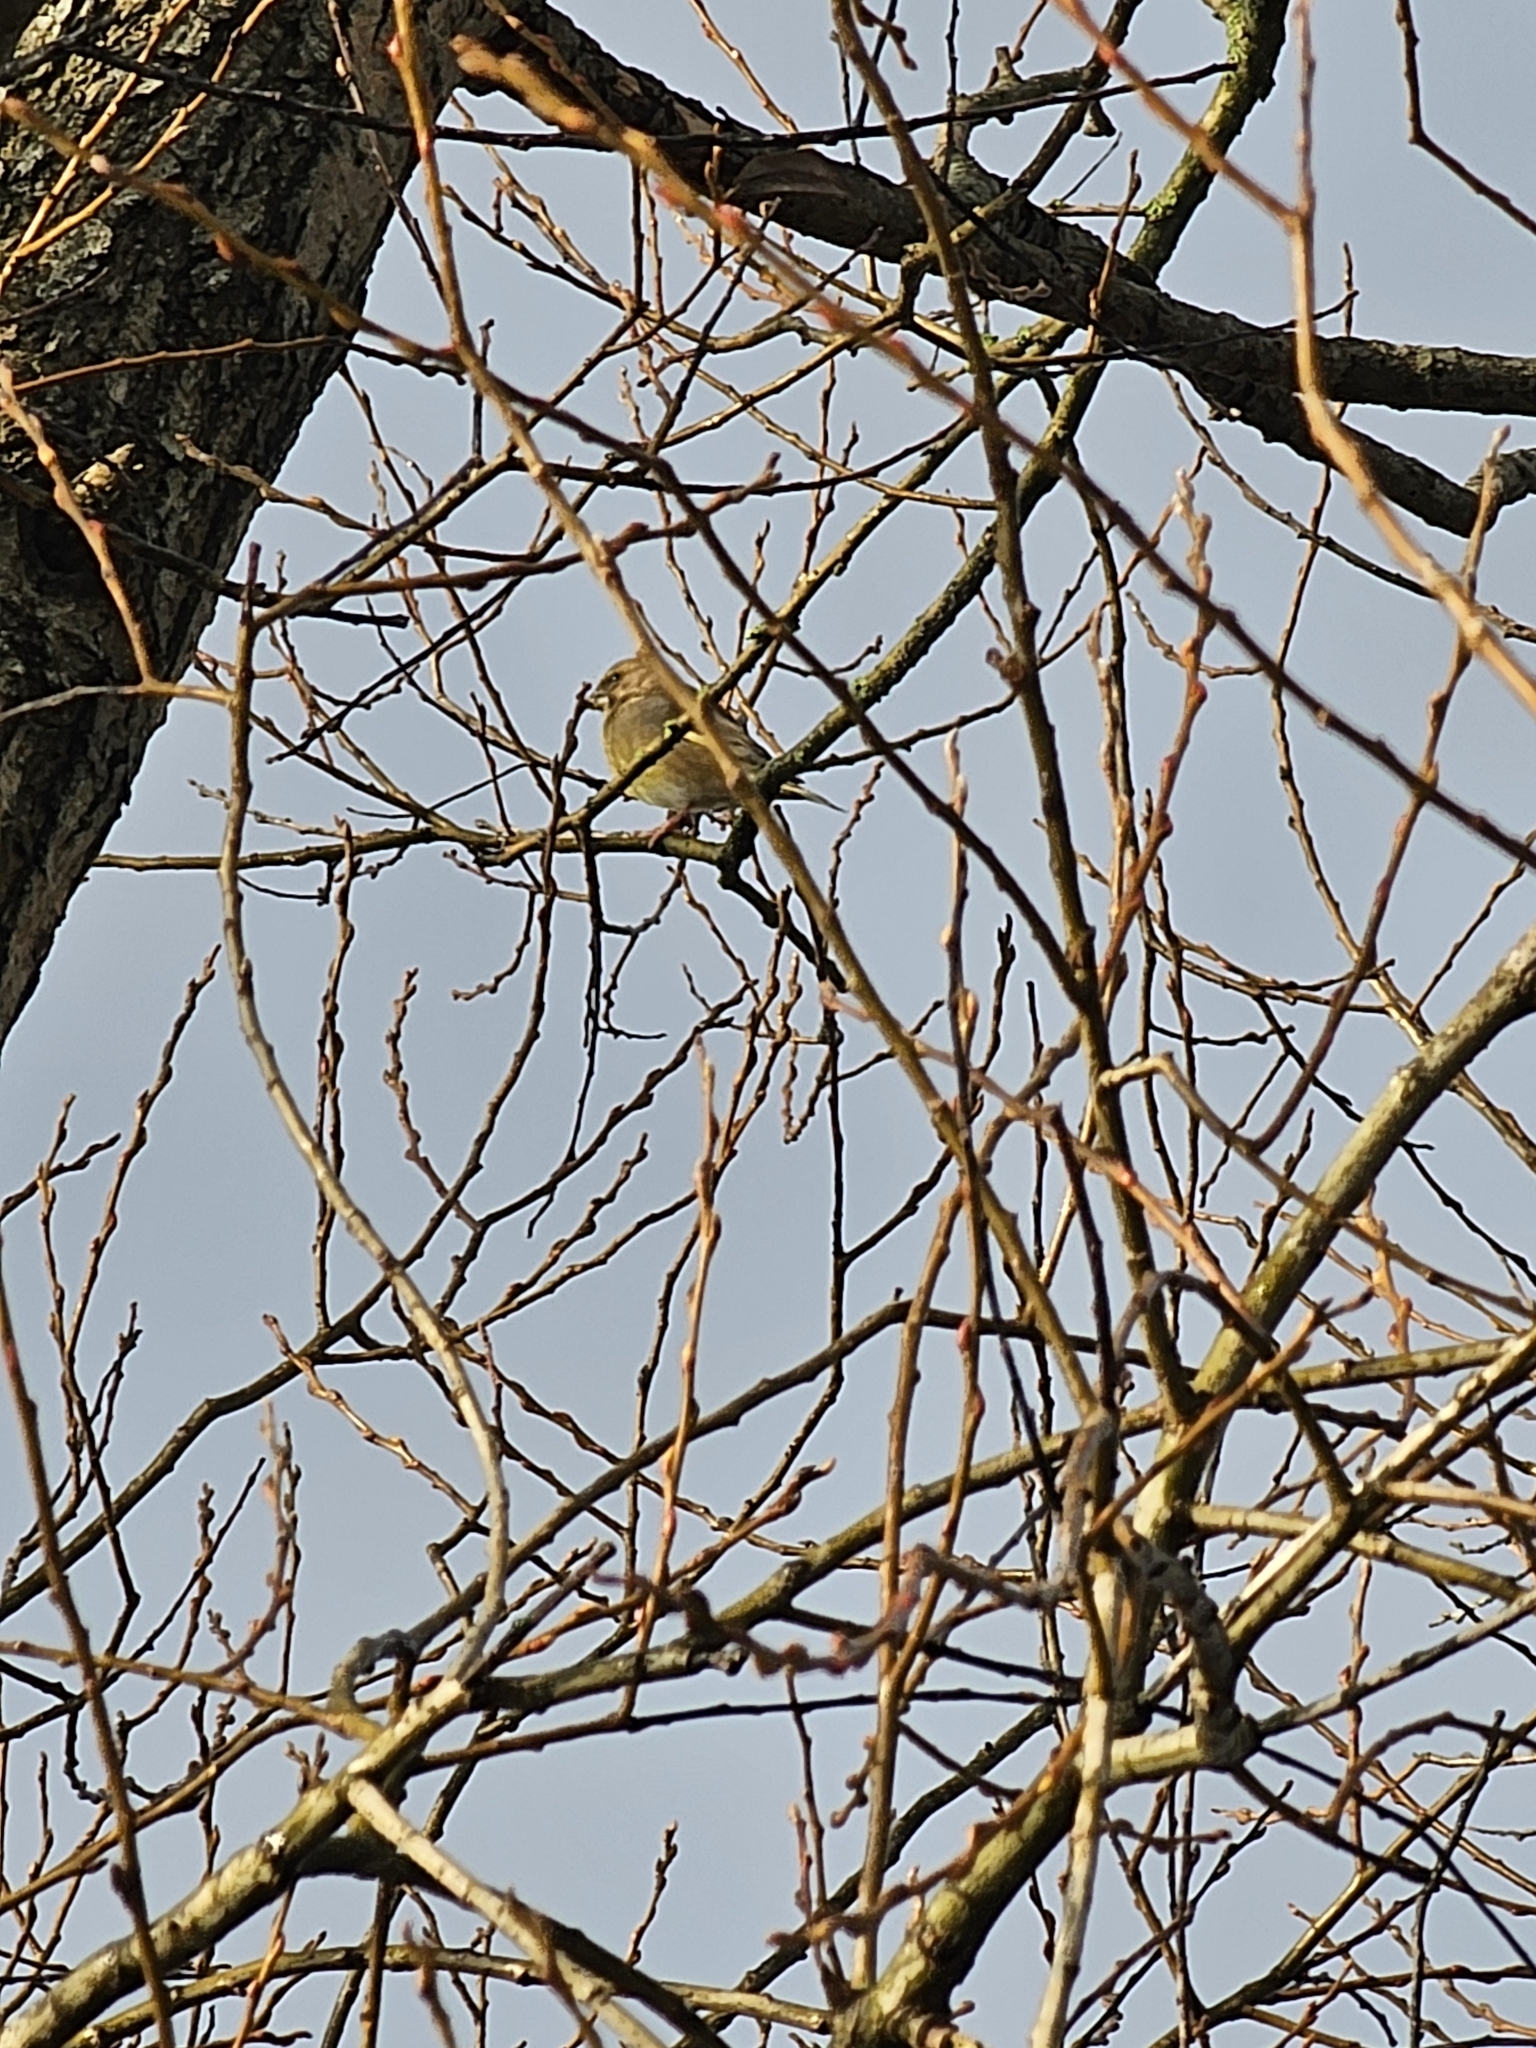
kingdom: Plantae
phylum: Tracheophyta
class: Liliopsida
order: Poales
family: Poaceae
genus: Chloris
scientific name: Chloris chloris
